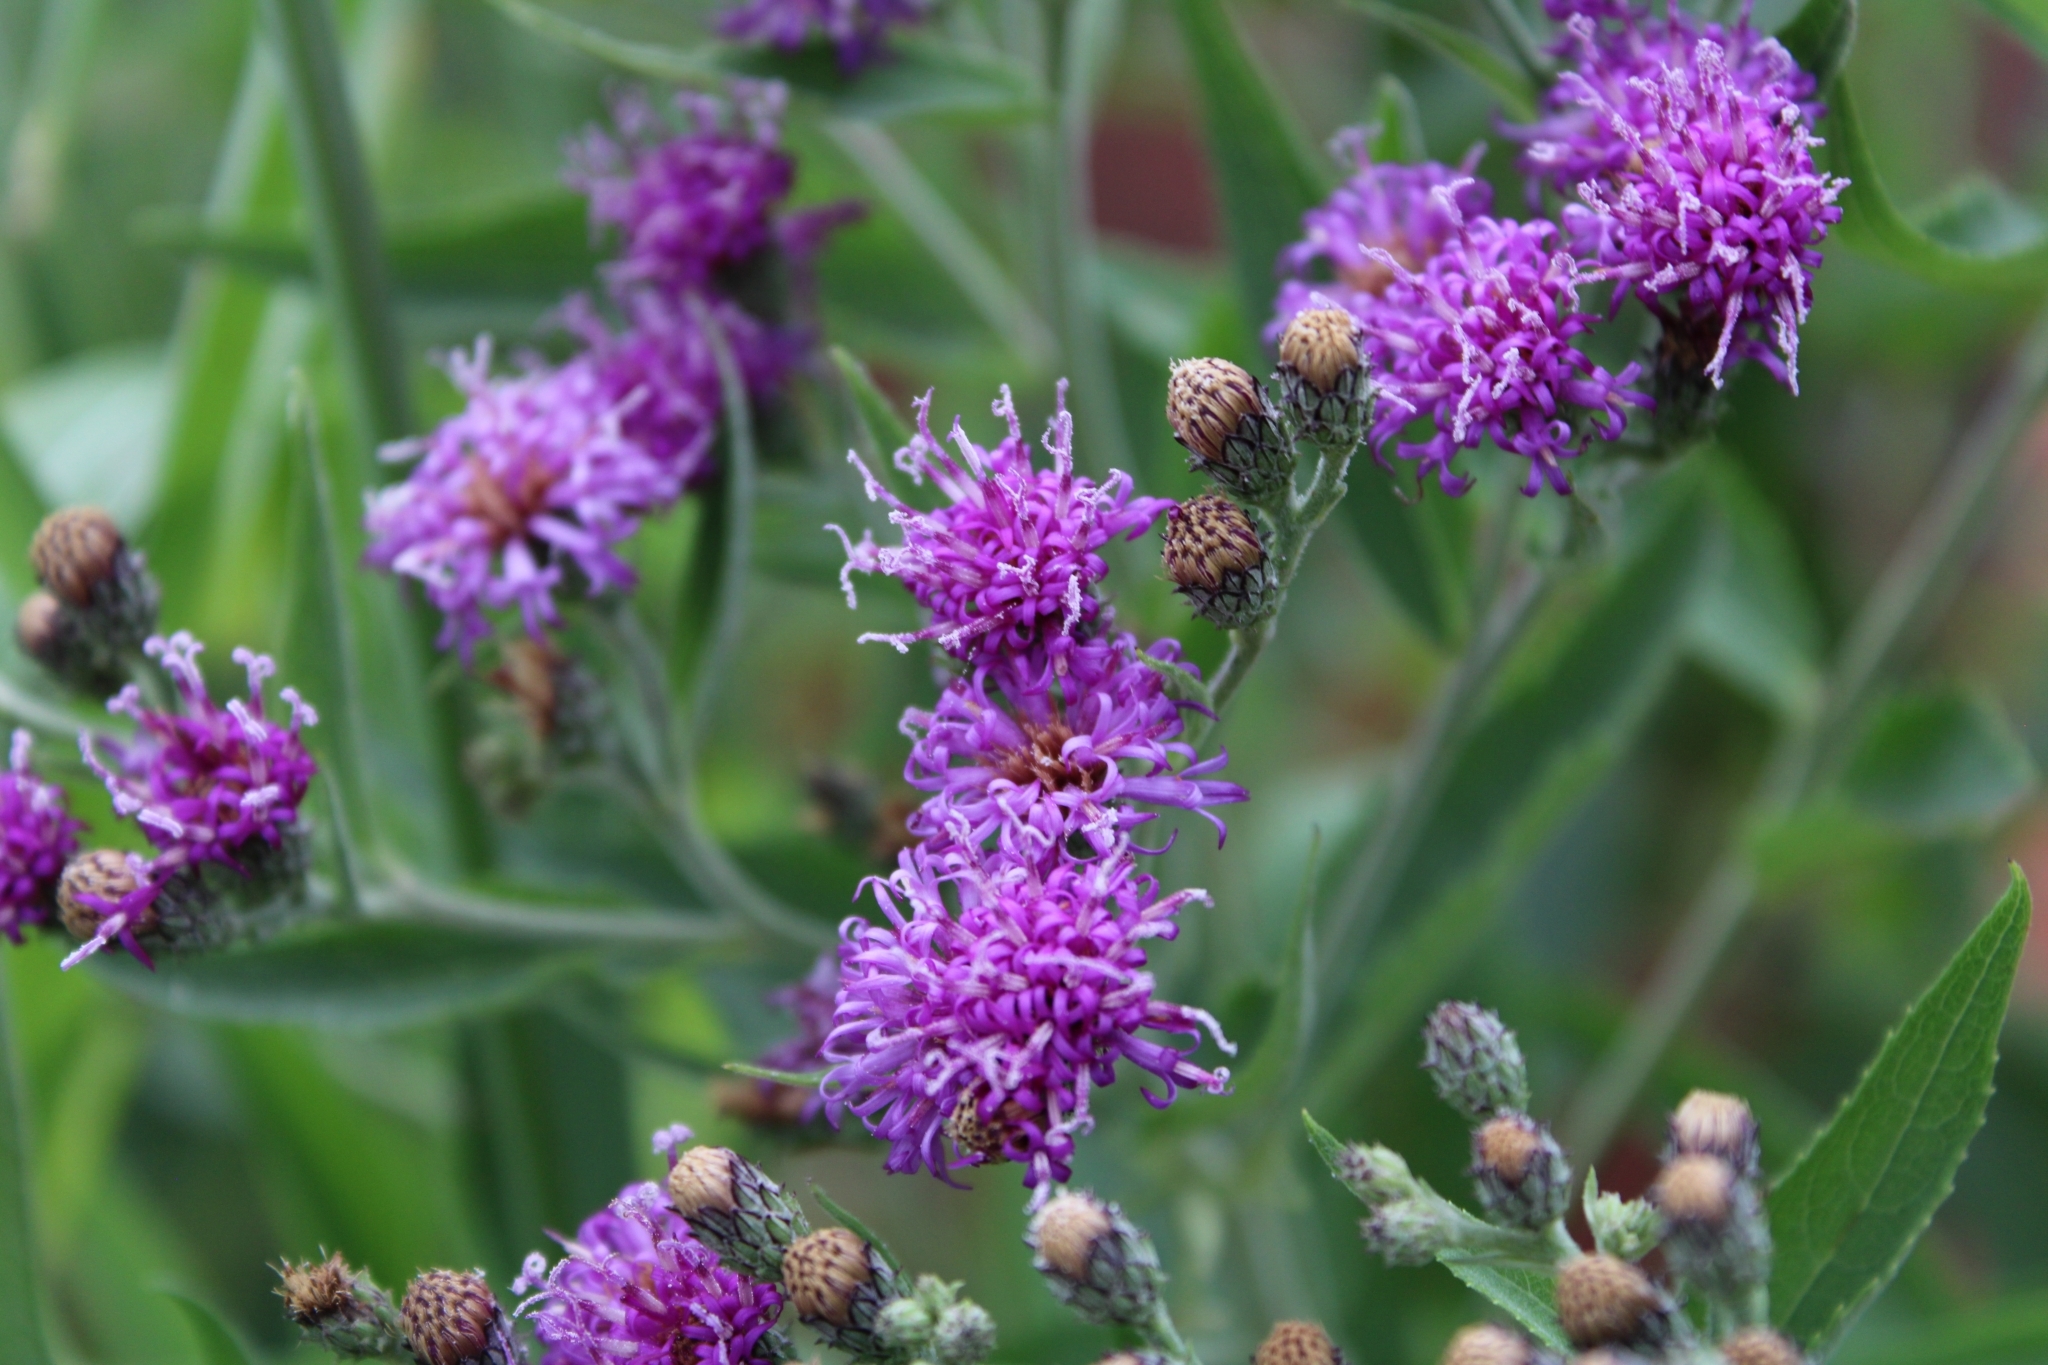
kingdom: Plantae
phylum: Tracheophyta
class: Magnoliopsida
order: Asterales
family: Asteraceae
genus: Vernonia
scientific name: Vernonia baldwinii
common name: Western ironweed
